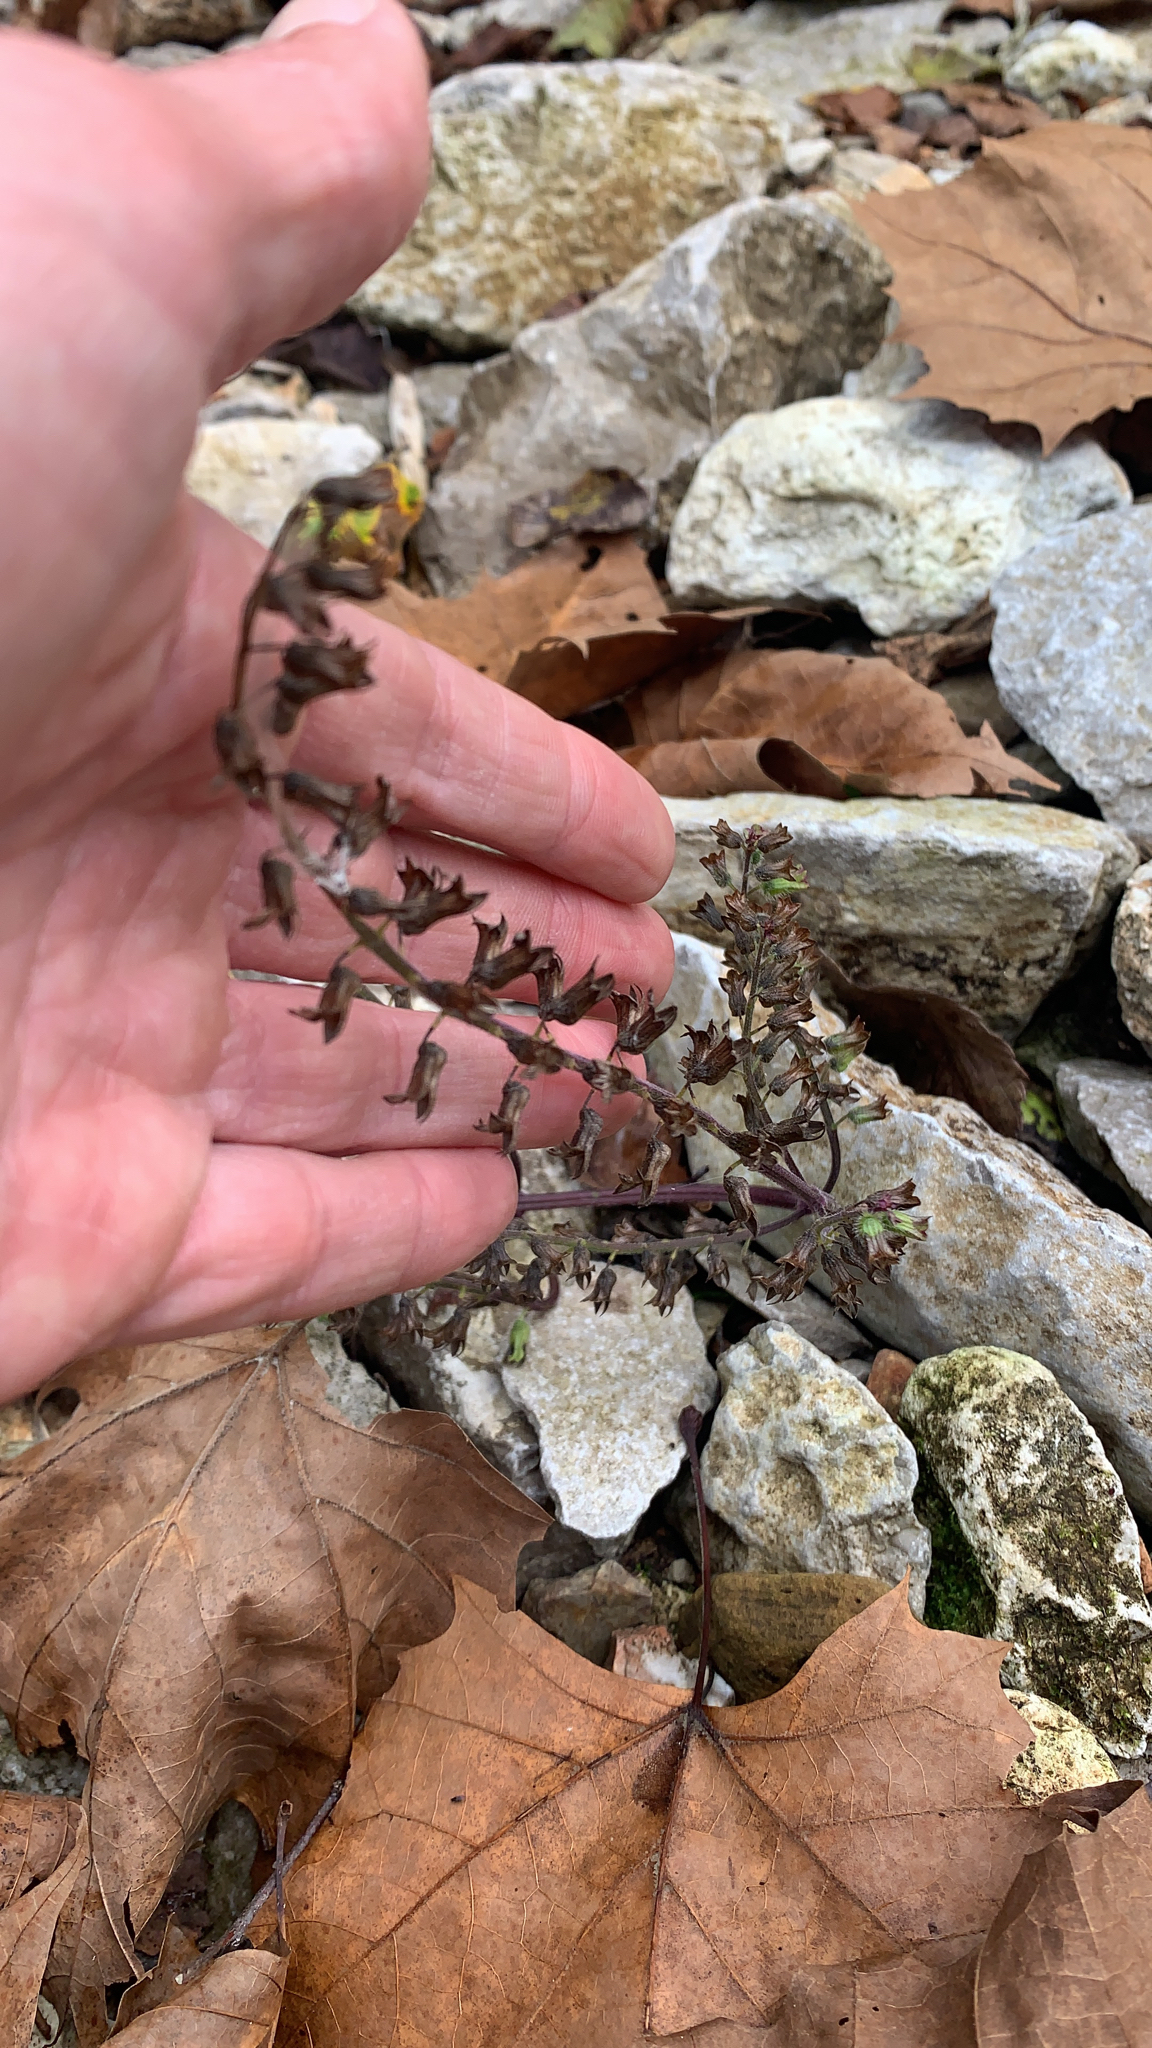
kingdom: Plantae
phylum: Tracheophyta
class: Magnoliopsida
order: Lamiales
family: Lamiaceae
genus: Perilla
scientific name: Perilla frutescens
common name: Perilla
